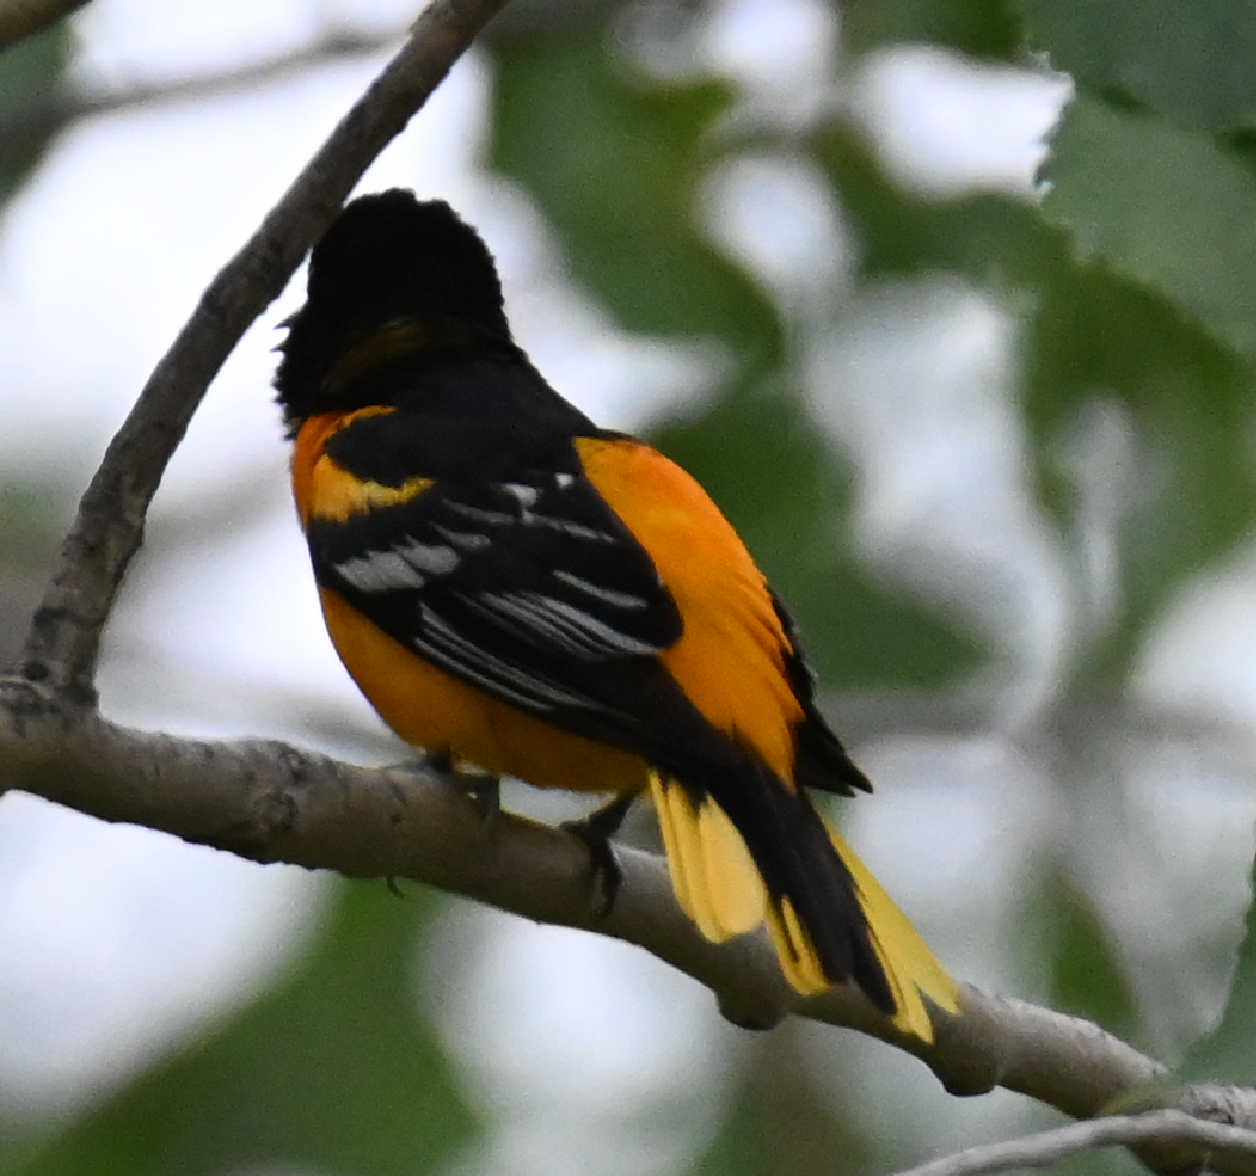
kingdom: Animalia
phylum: Chordata
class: Aves
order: Passeriformes
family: Icteridae
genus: Icterus
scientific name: Icterus galbula
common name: Baltimore oriole
